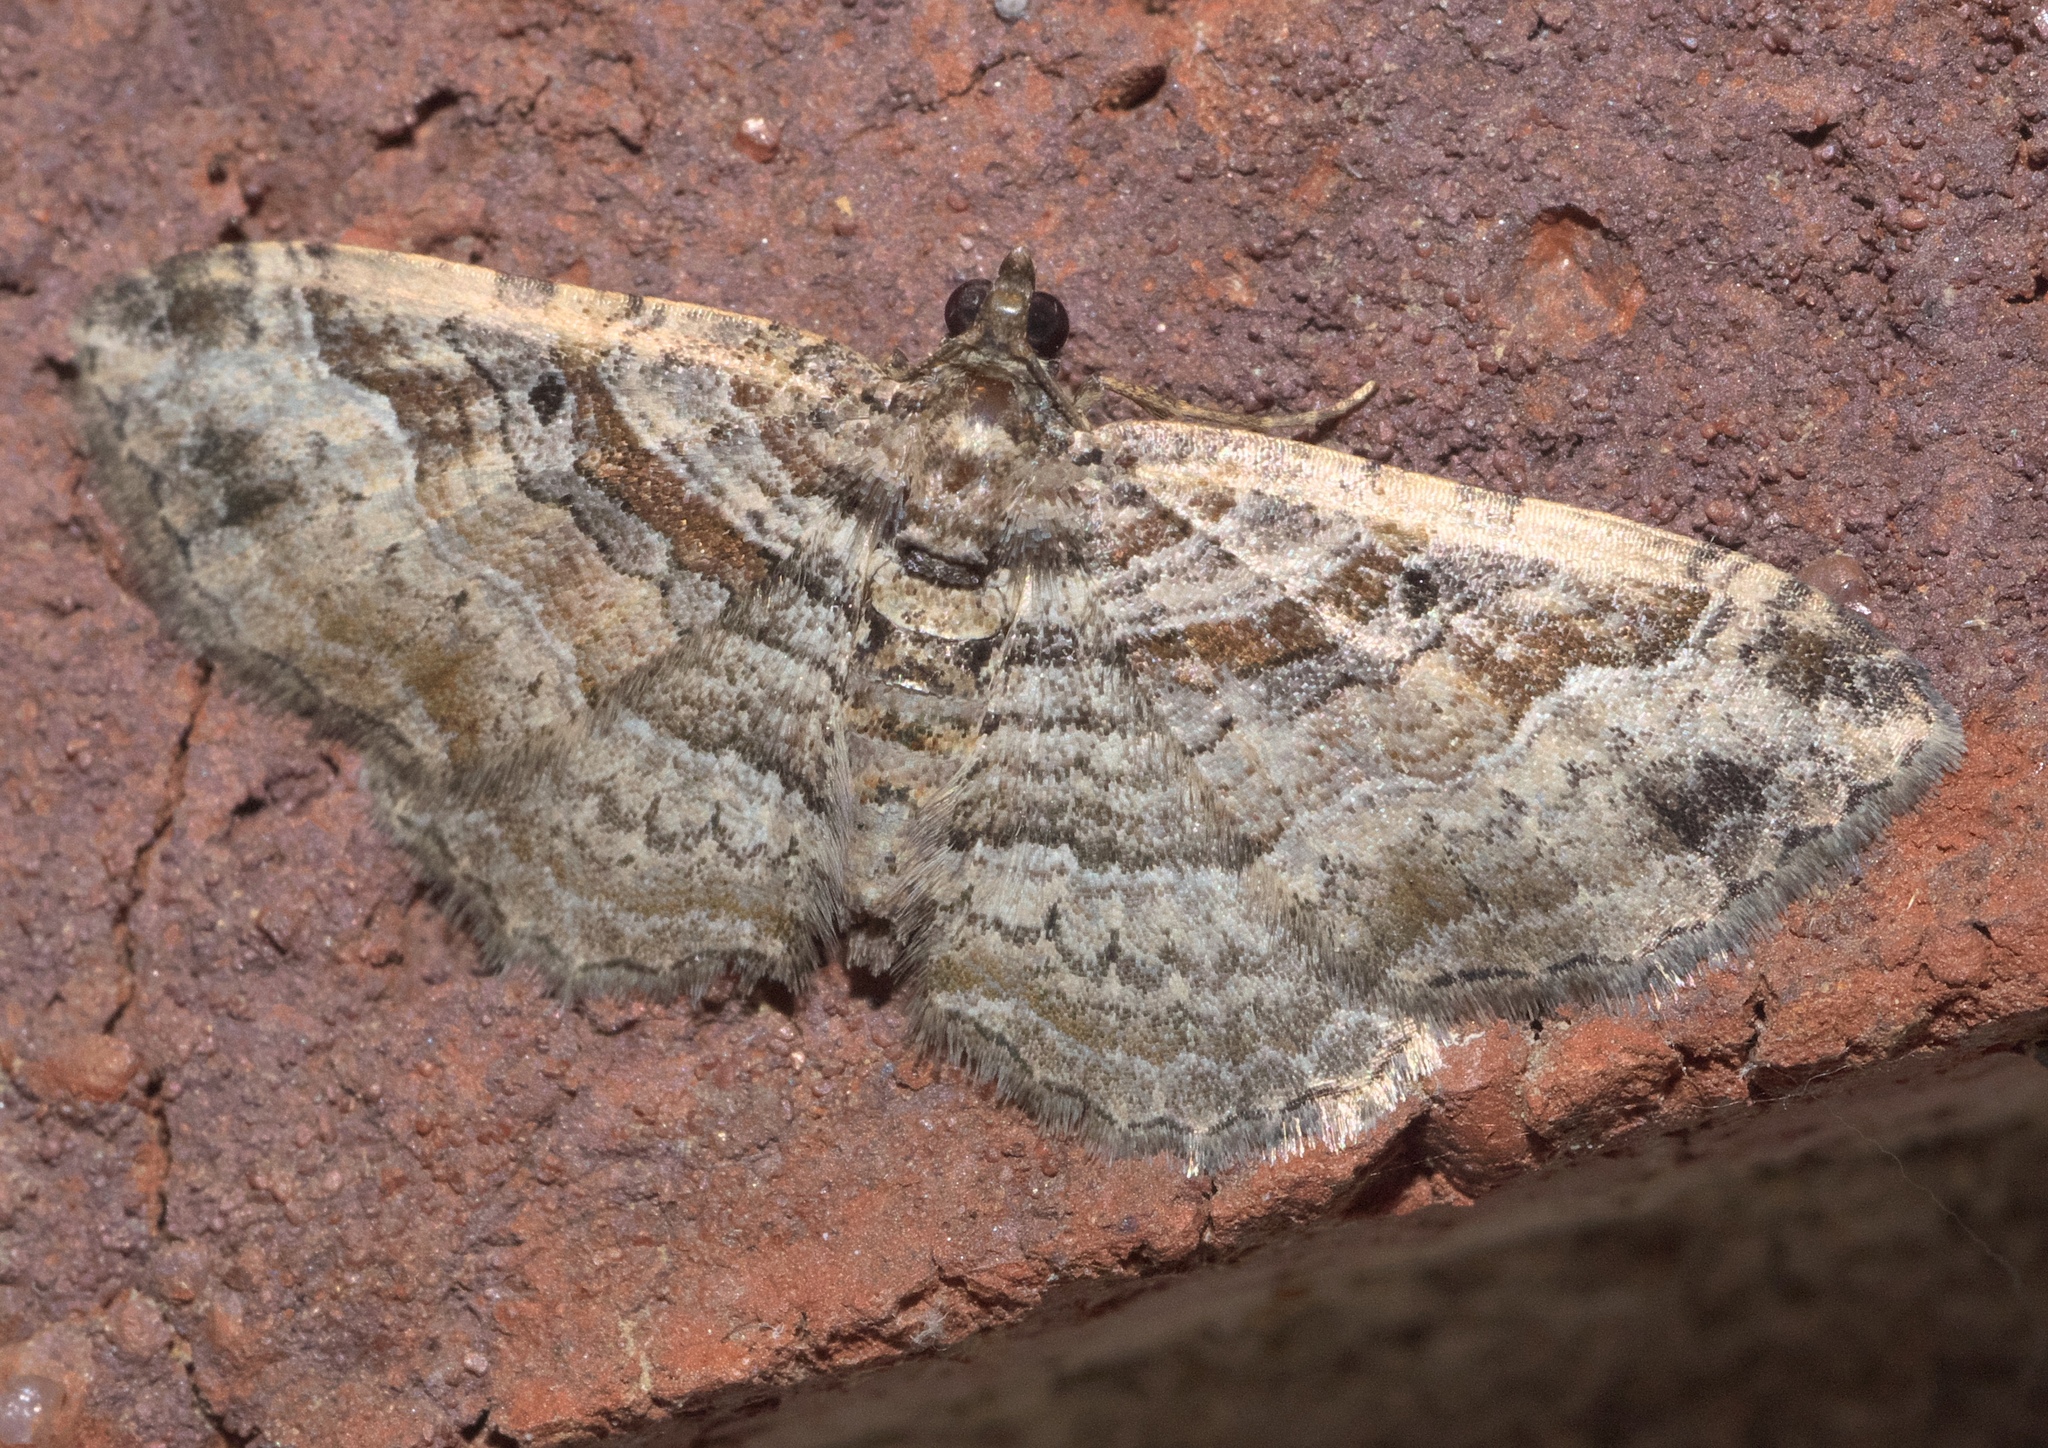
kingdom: Animalia
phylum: Arthropoda
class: Insecta
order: Lepidoptera
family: Geometridae
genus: Costaconvexa
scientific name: Costaconvexa centrostrigaria
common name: Bent-line carpet
